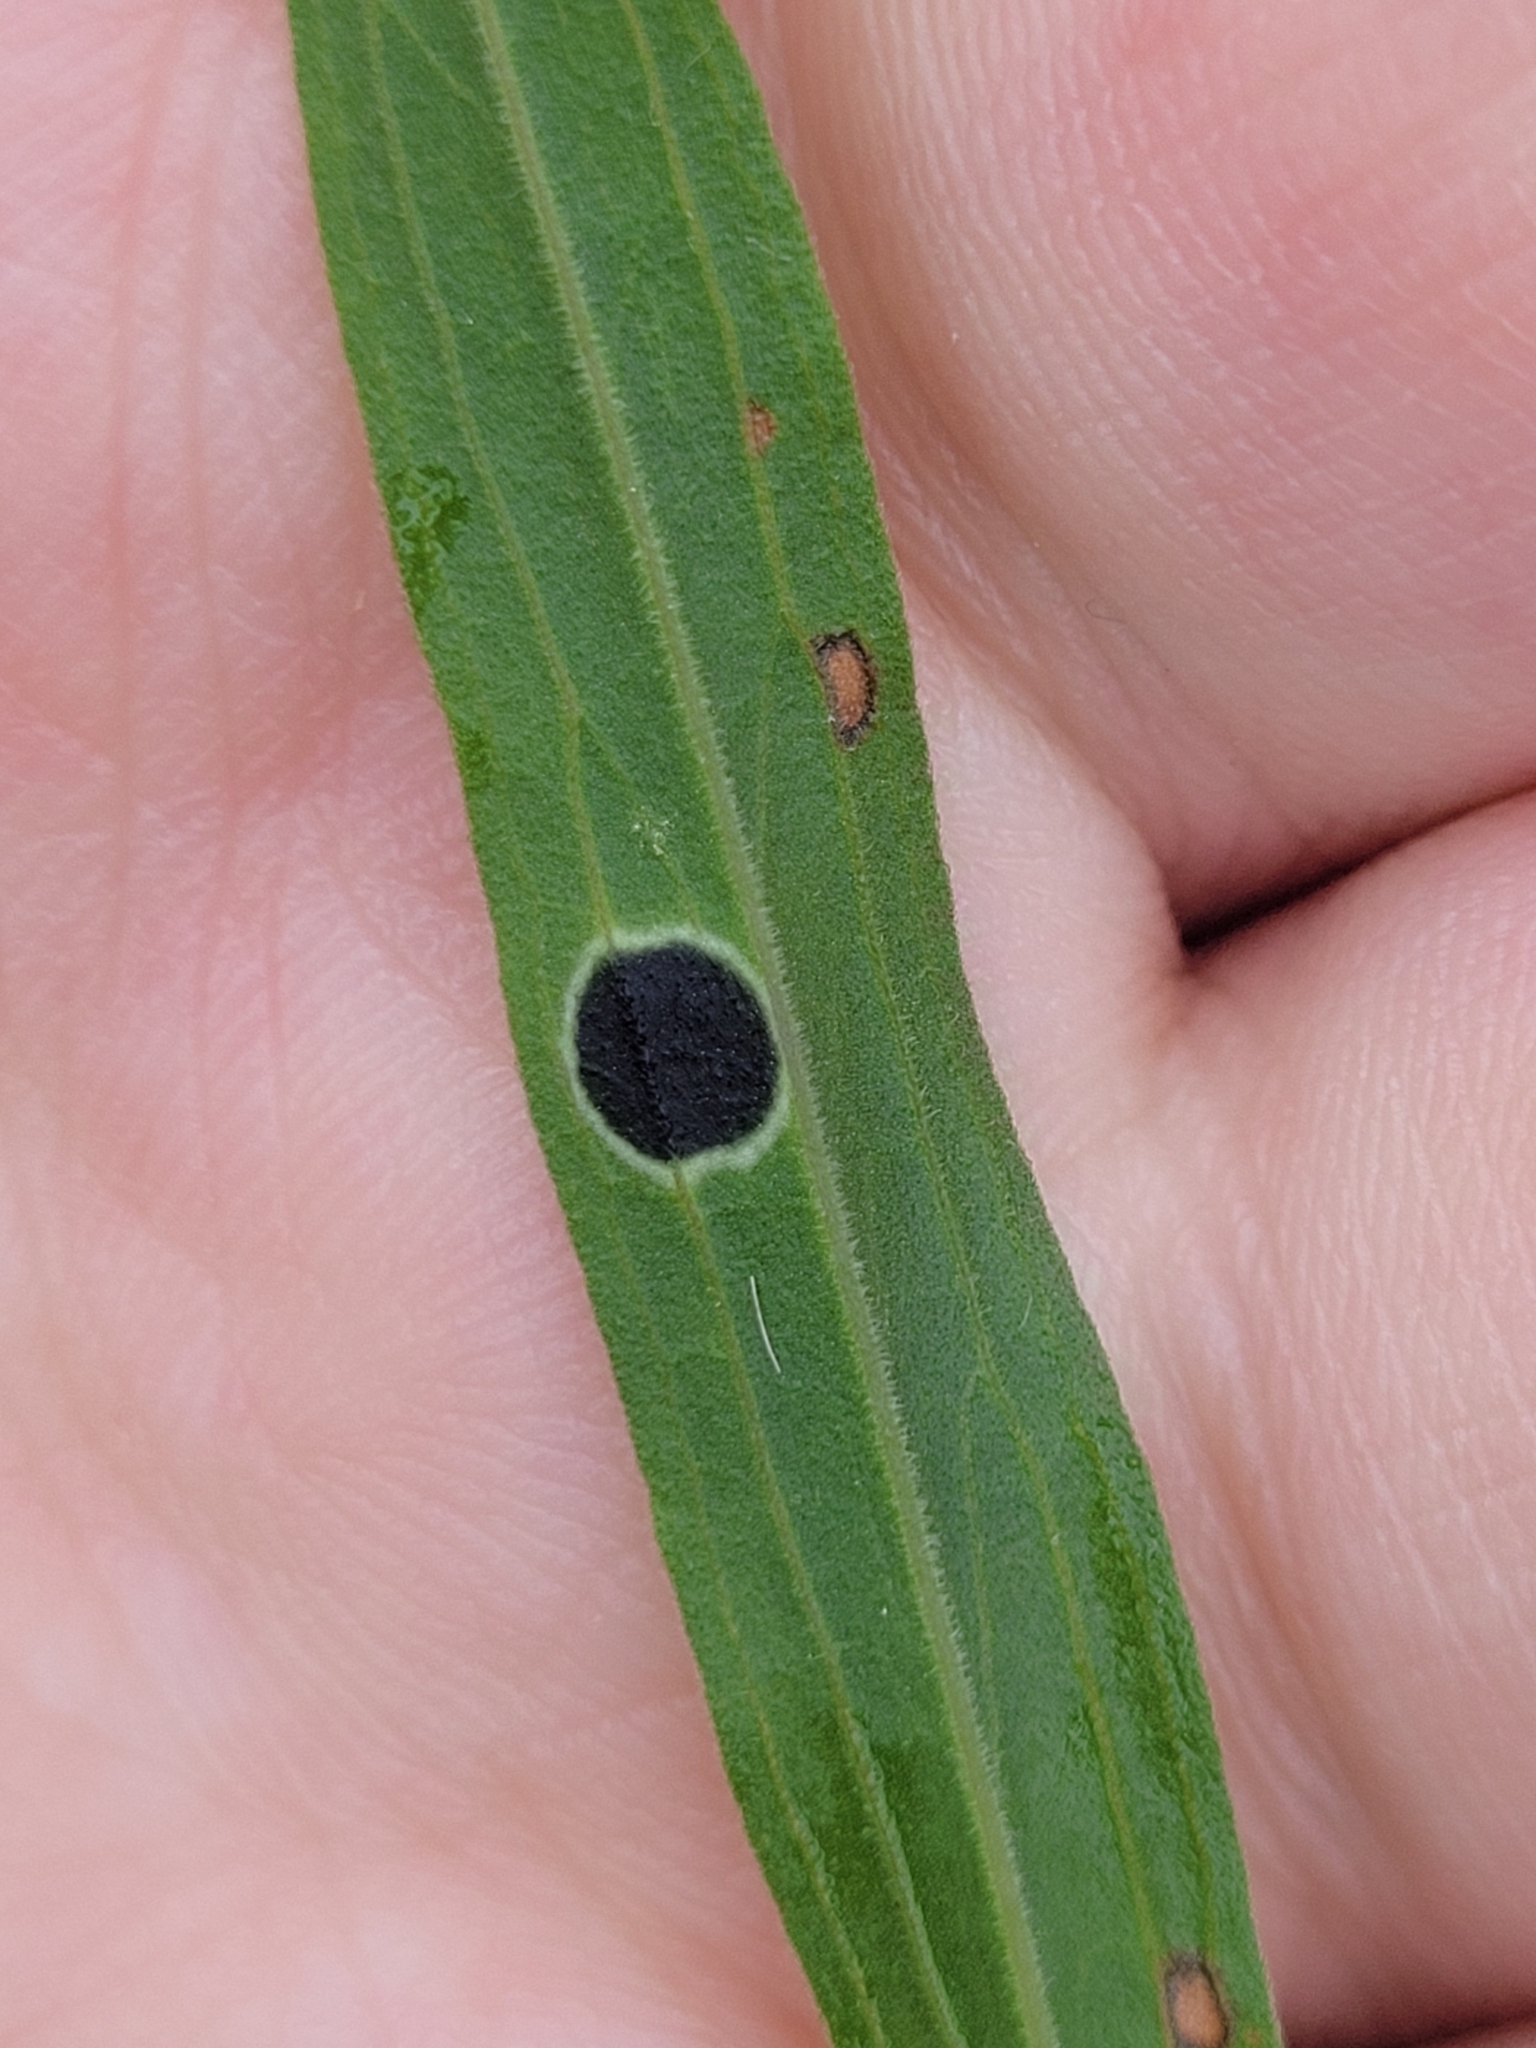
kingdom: Animalia
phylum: Arthropoda
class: Insecta
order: Diptera
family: Cecidomyiidae
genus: Asteromyia
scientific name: Asteromyia euthamiae
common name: Euthamia leaf gall midge
